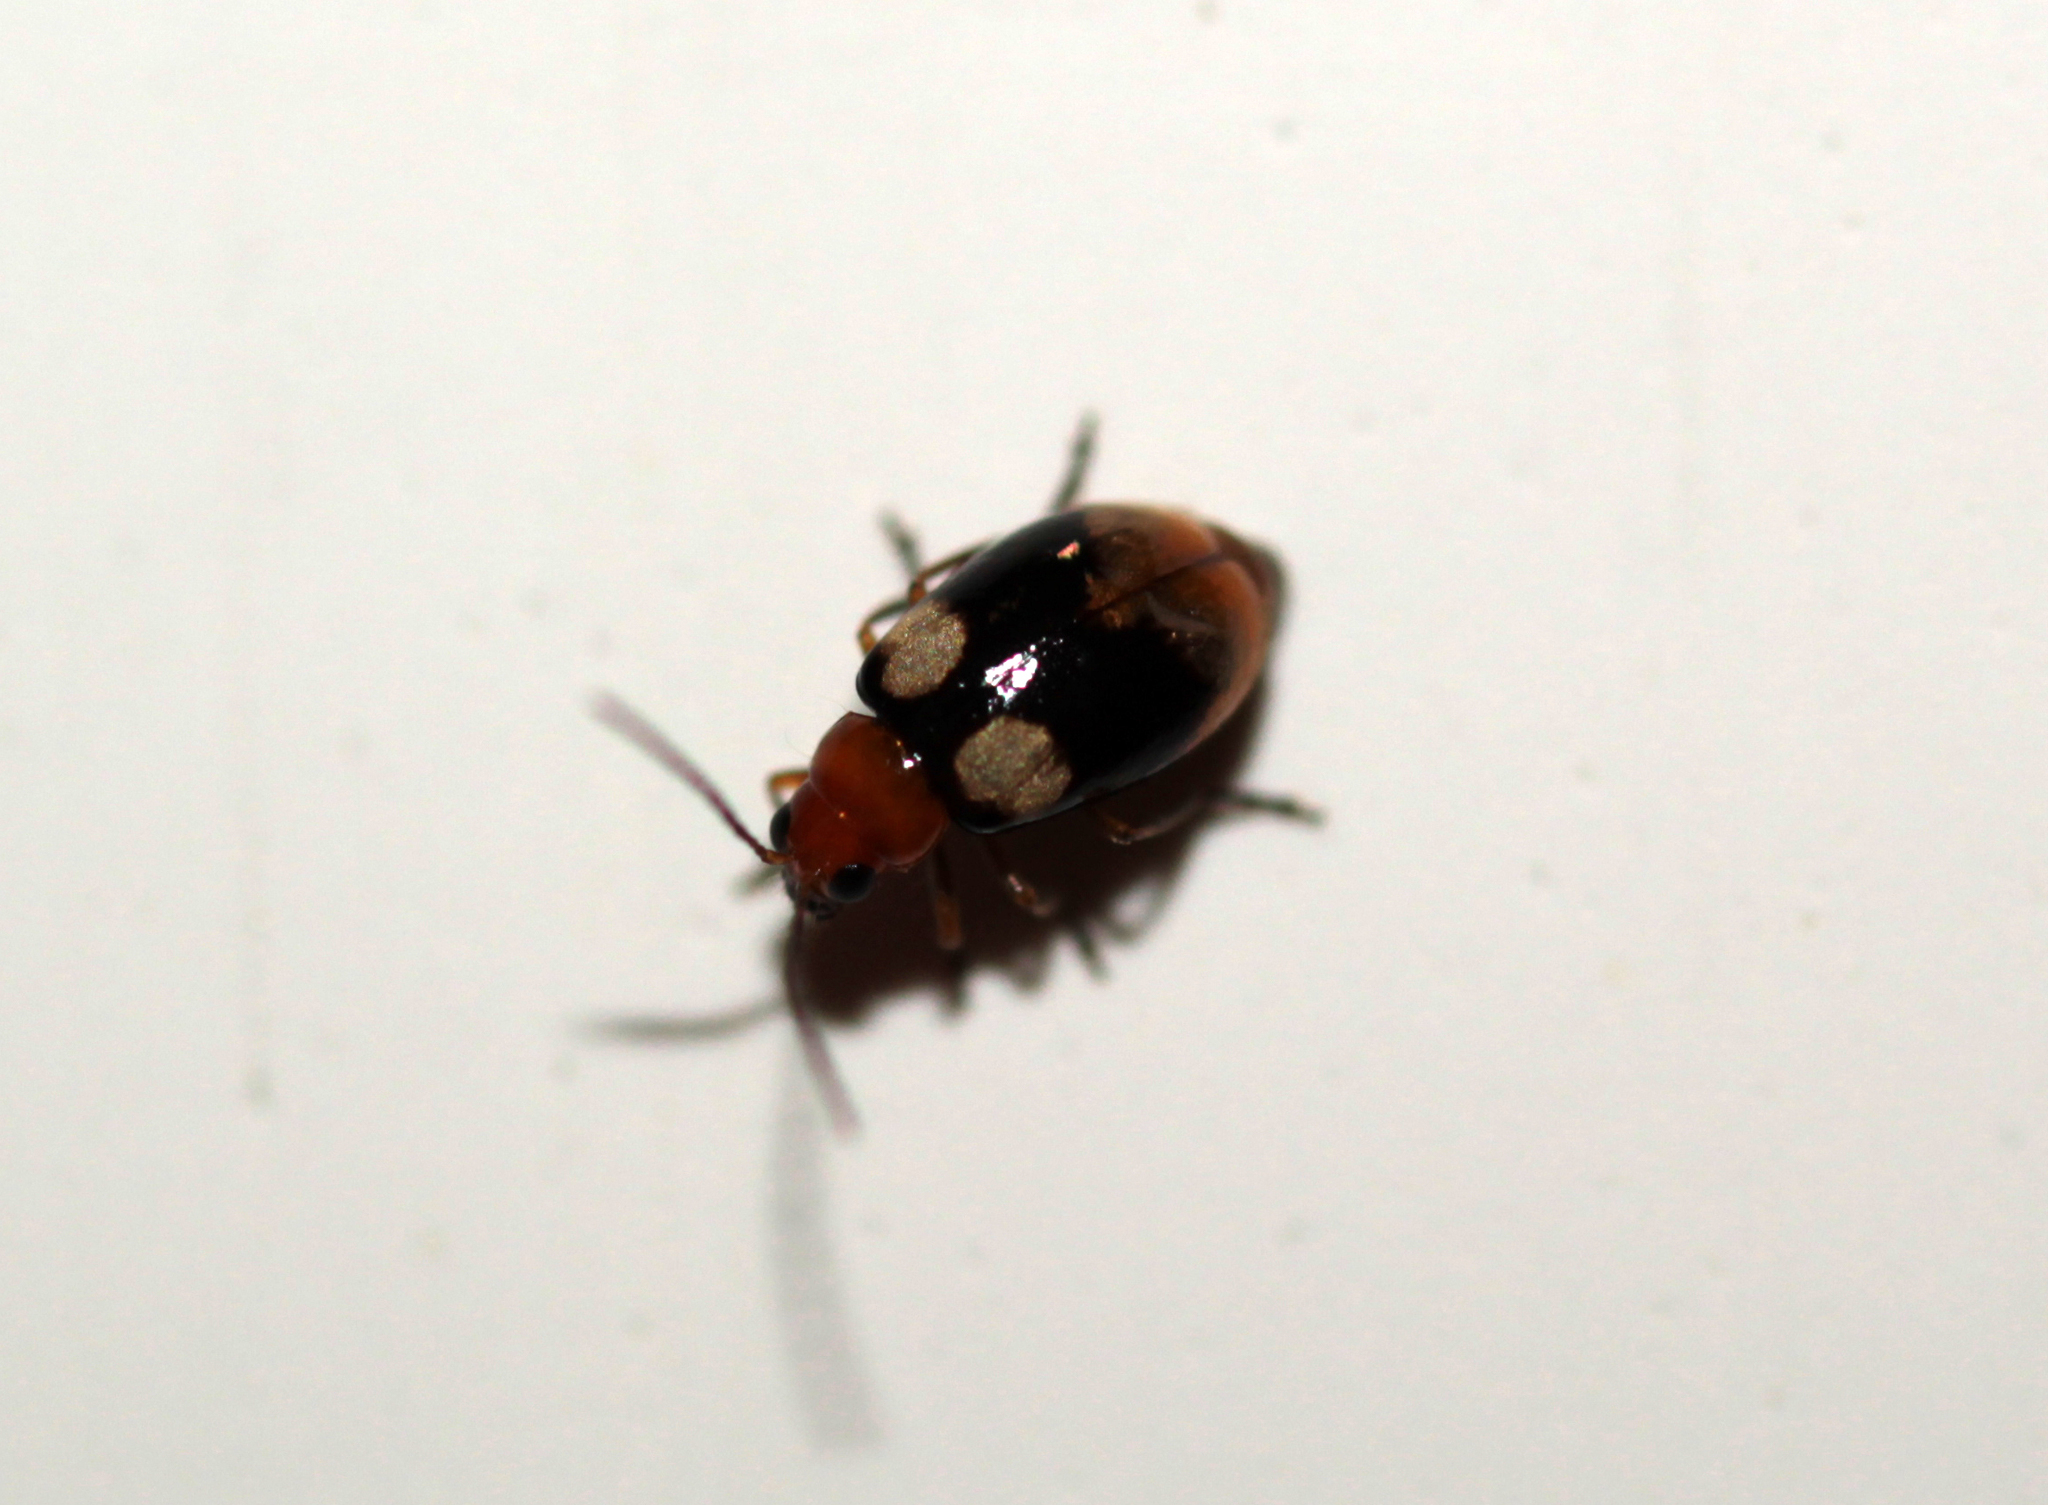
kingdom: Animalia
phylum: Arthropoda
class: Insecta
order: Coleoptera
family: Chrysomelidae
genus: Monolepta
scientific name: Monolepta quadriguttata
